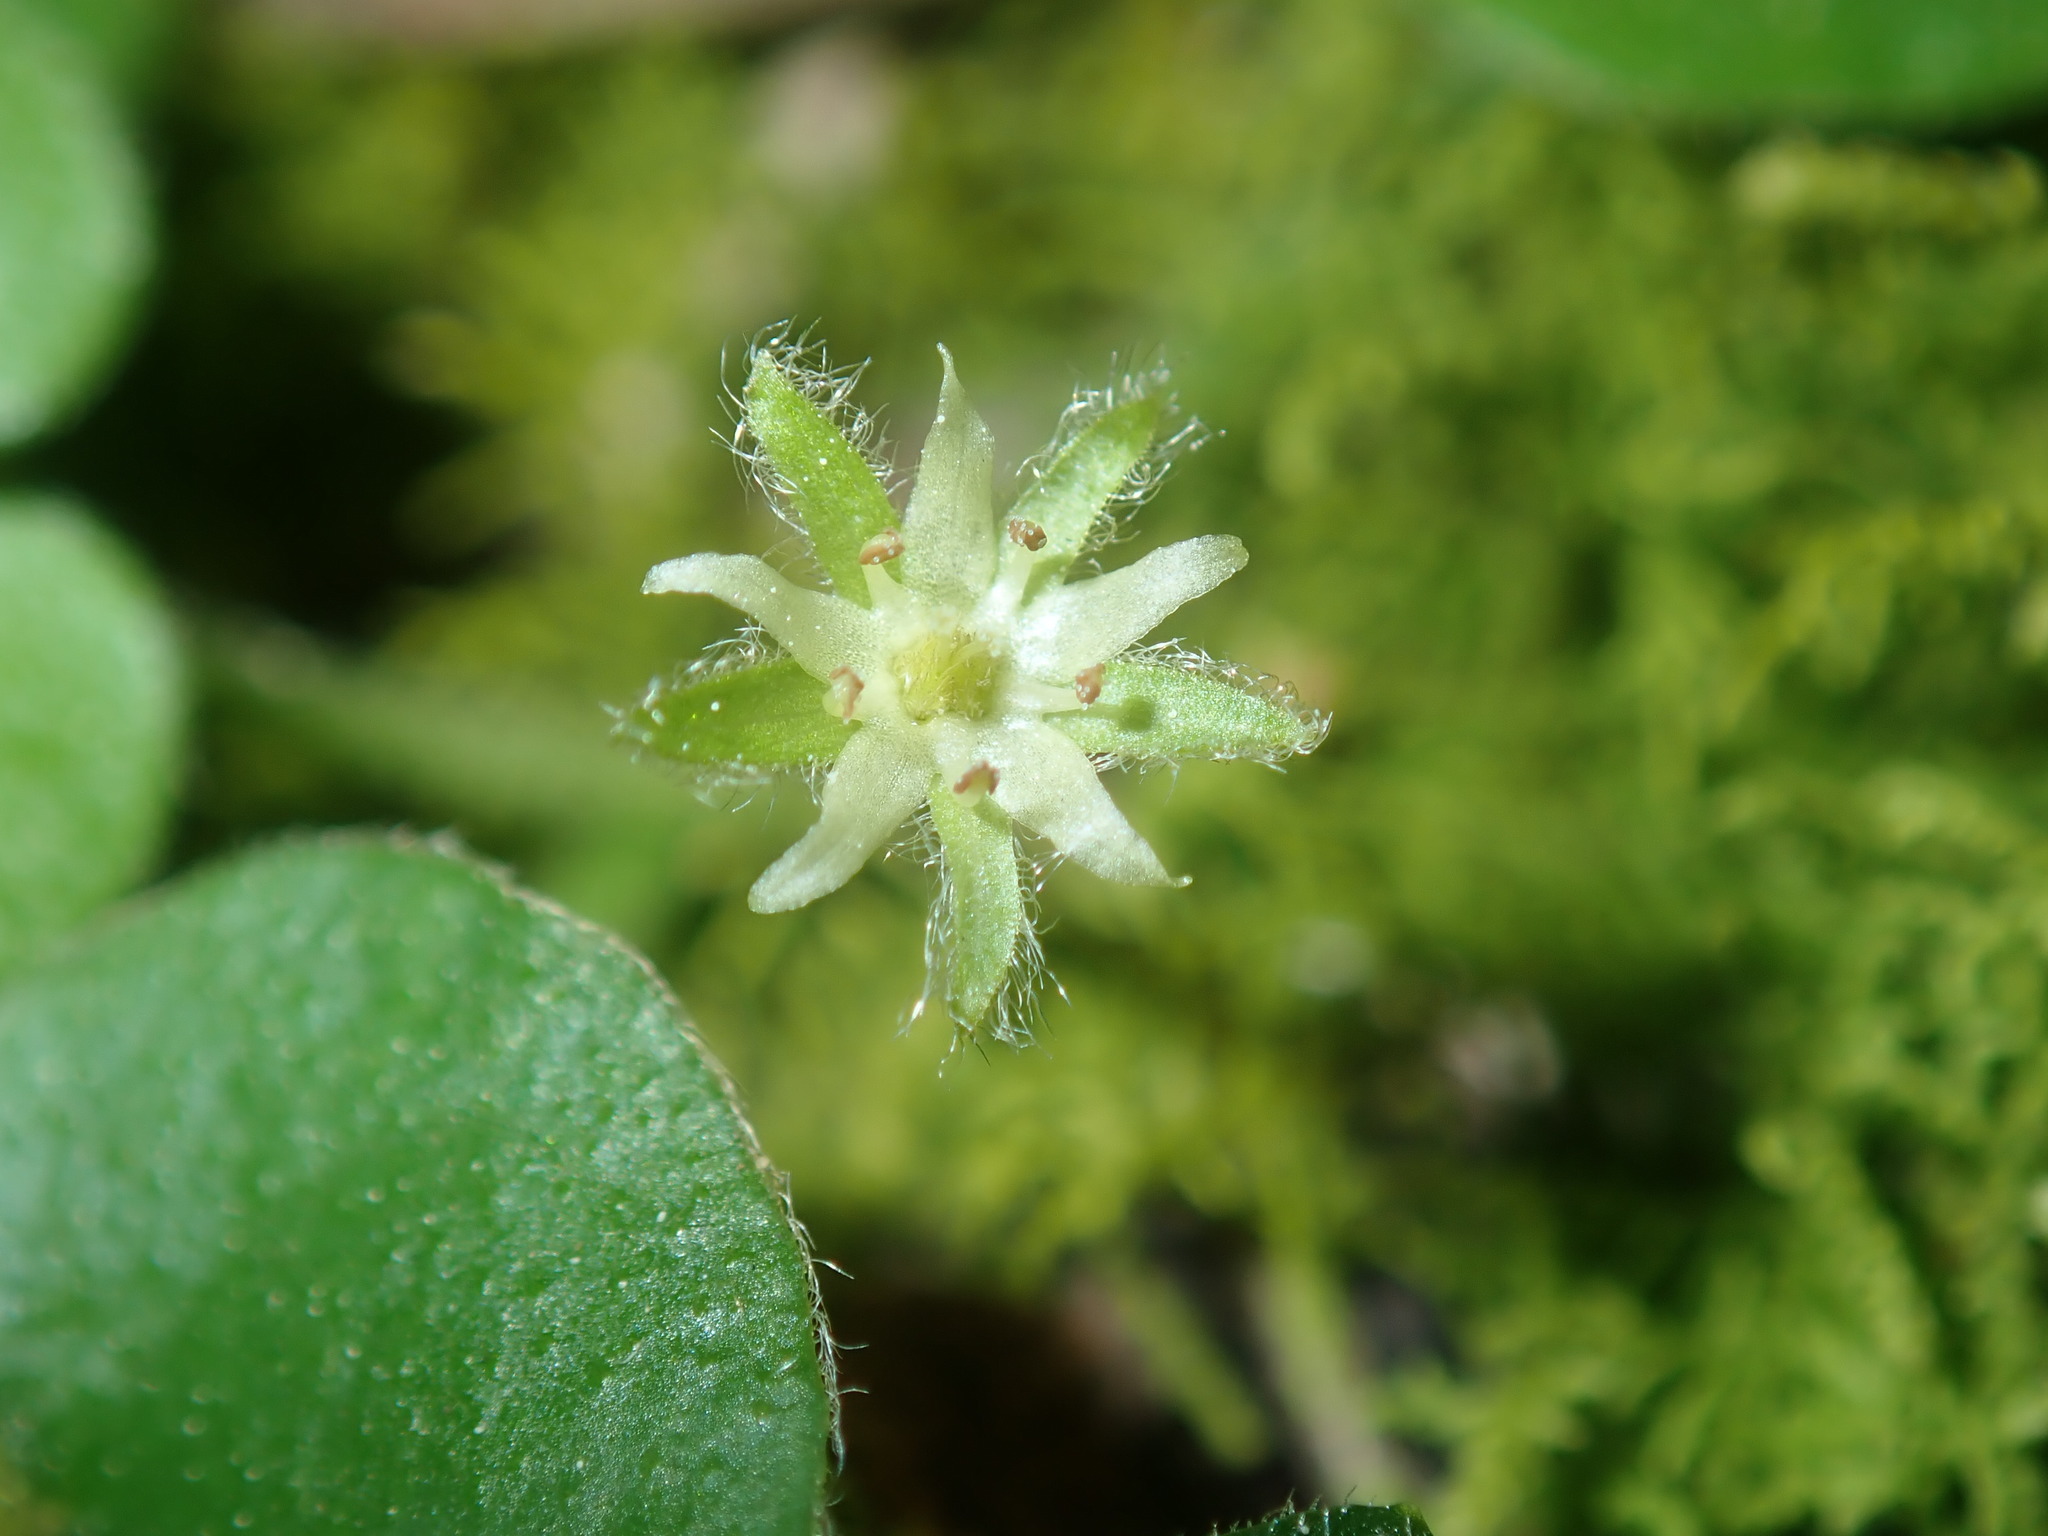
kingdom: Plantae
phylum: Tracheophyta
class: Magnoliopsida
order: Solanales
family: Convolvulaceae
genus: Dichondra
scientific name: Dichondra repens
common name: Kidneyweed
